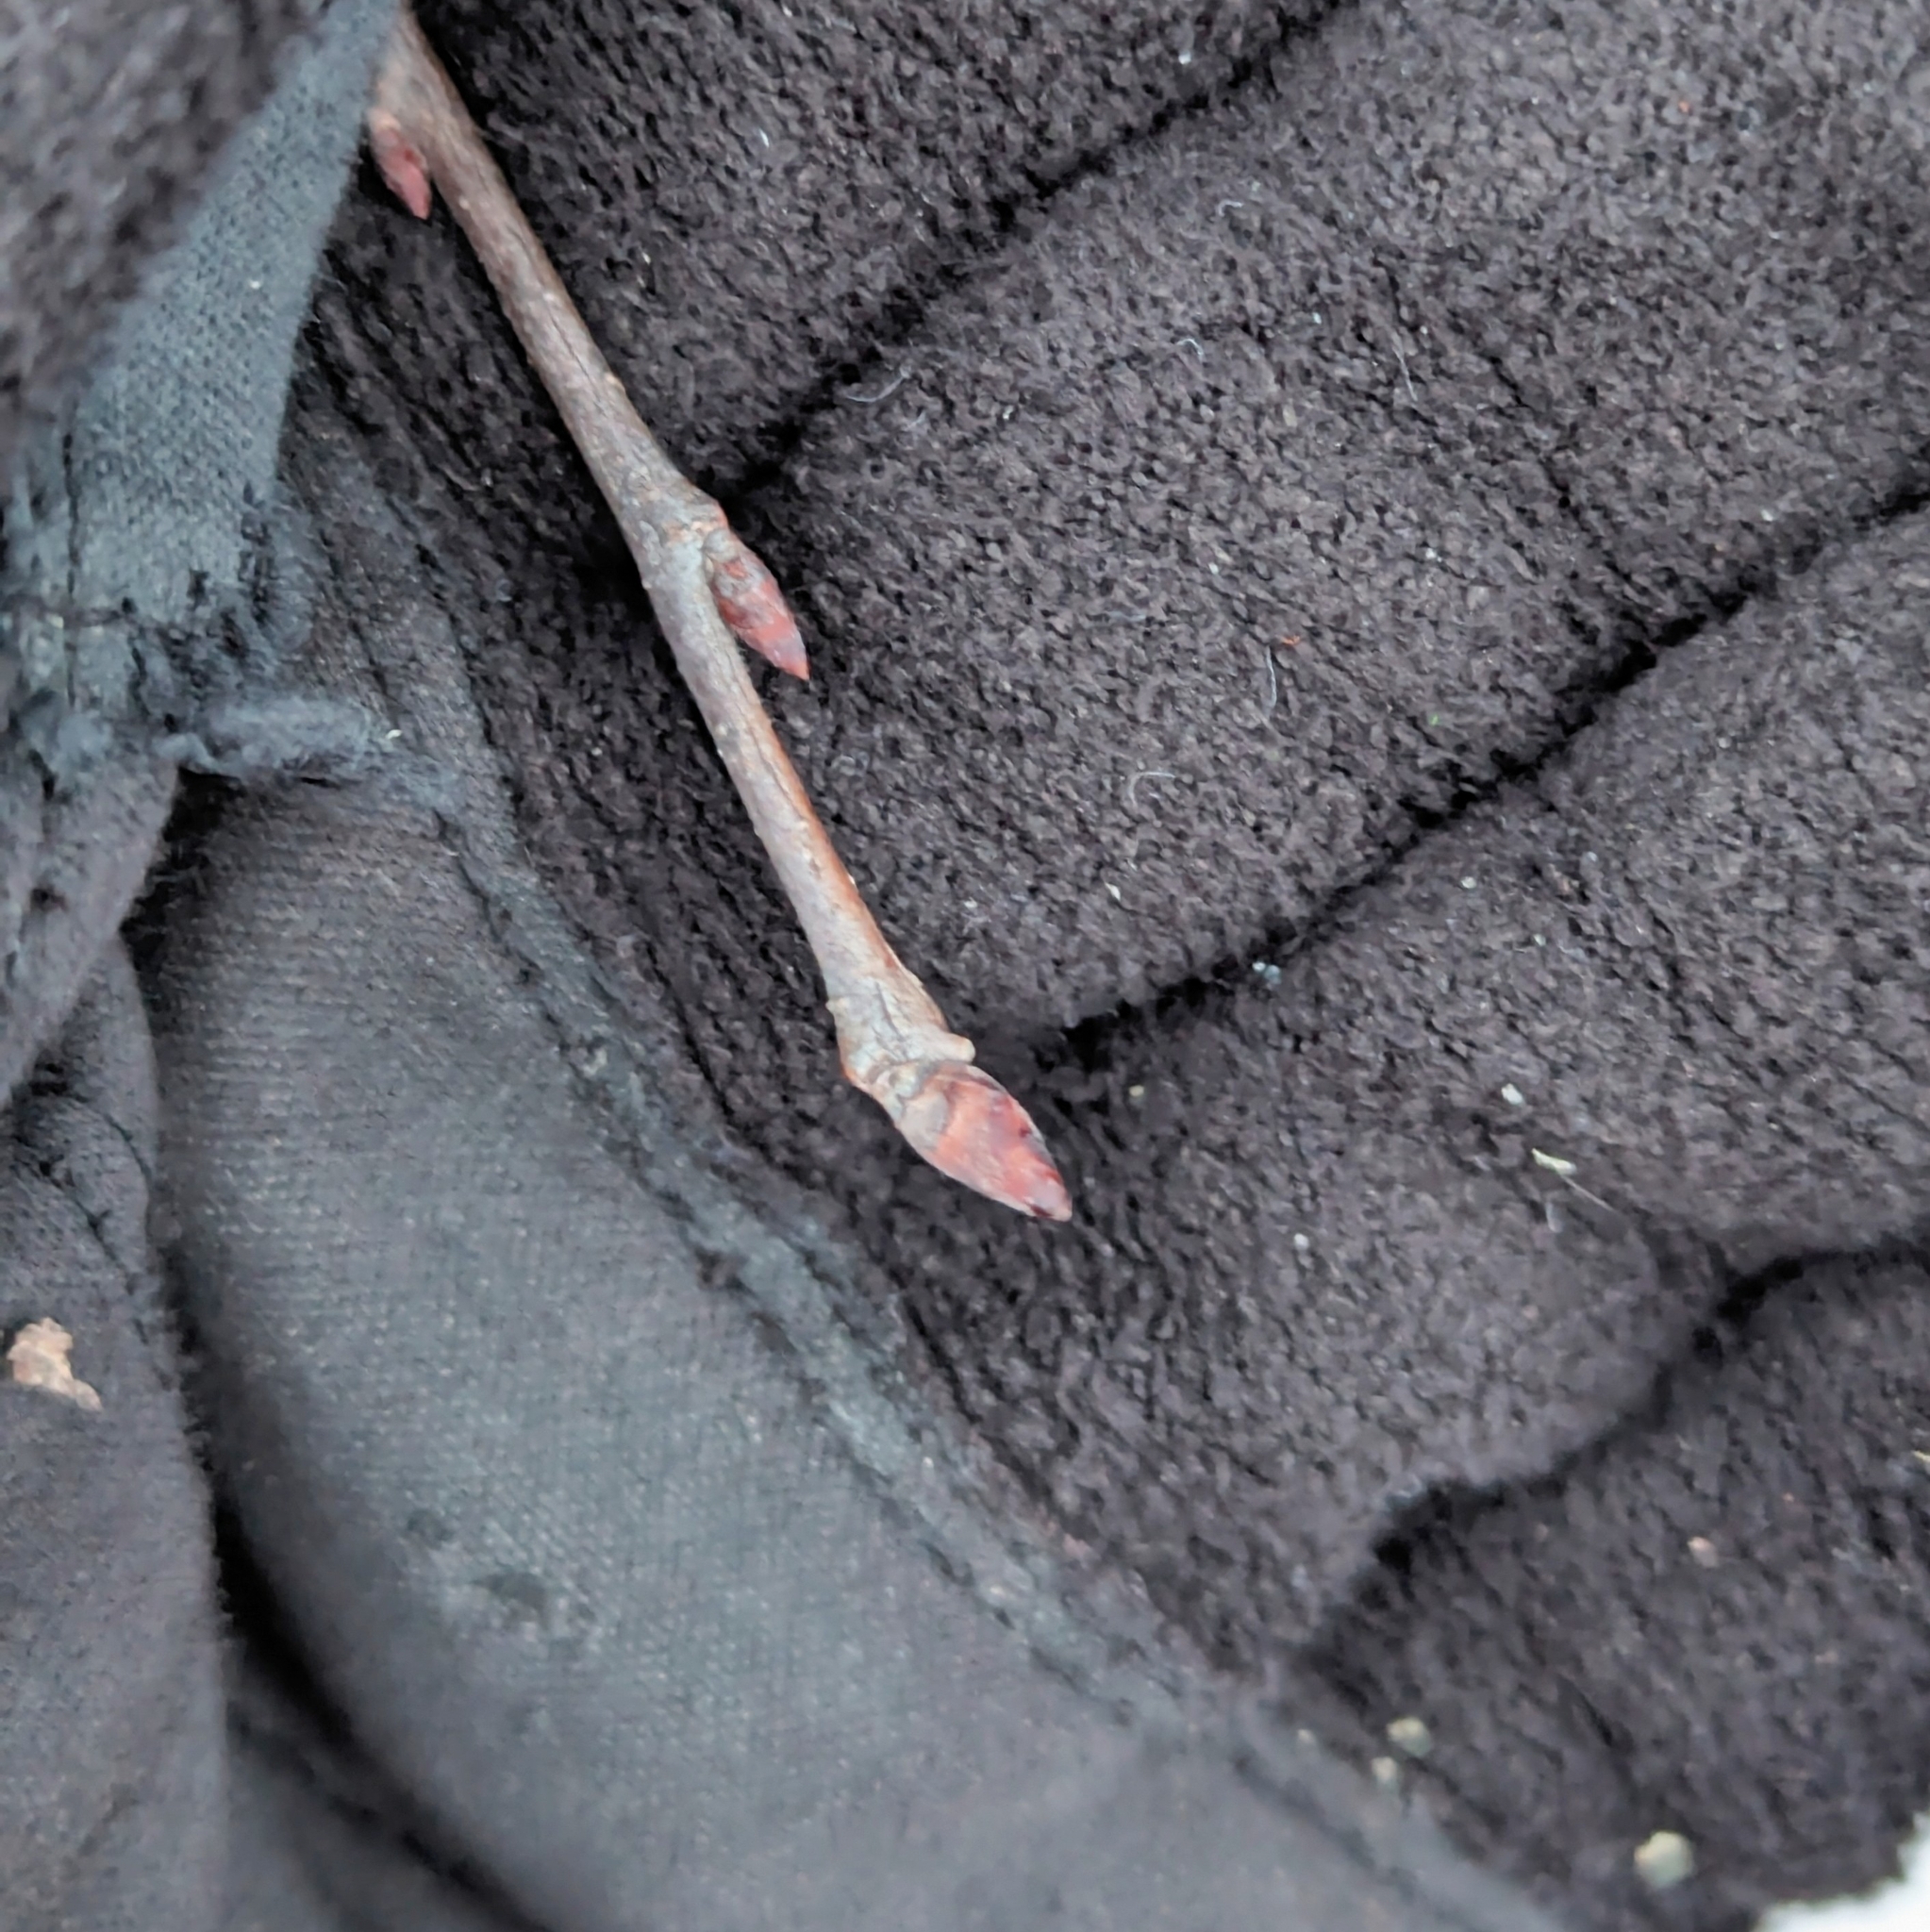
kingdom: Plantae
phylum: Tracheophyta
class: Magnoliopsida
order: Rosales
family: Ulmaceae
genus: Ulmus
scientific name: Ulmus americana
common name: American elm
